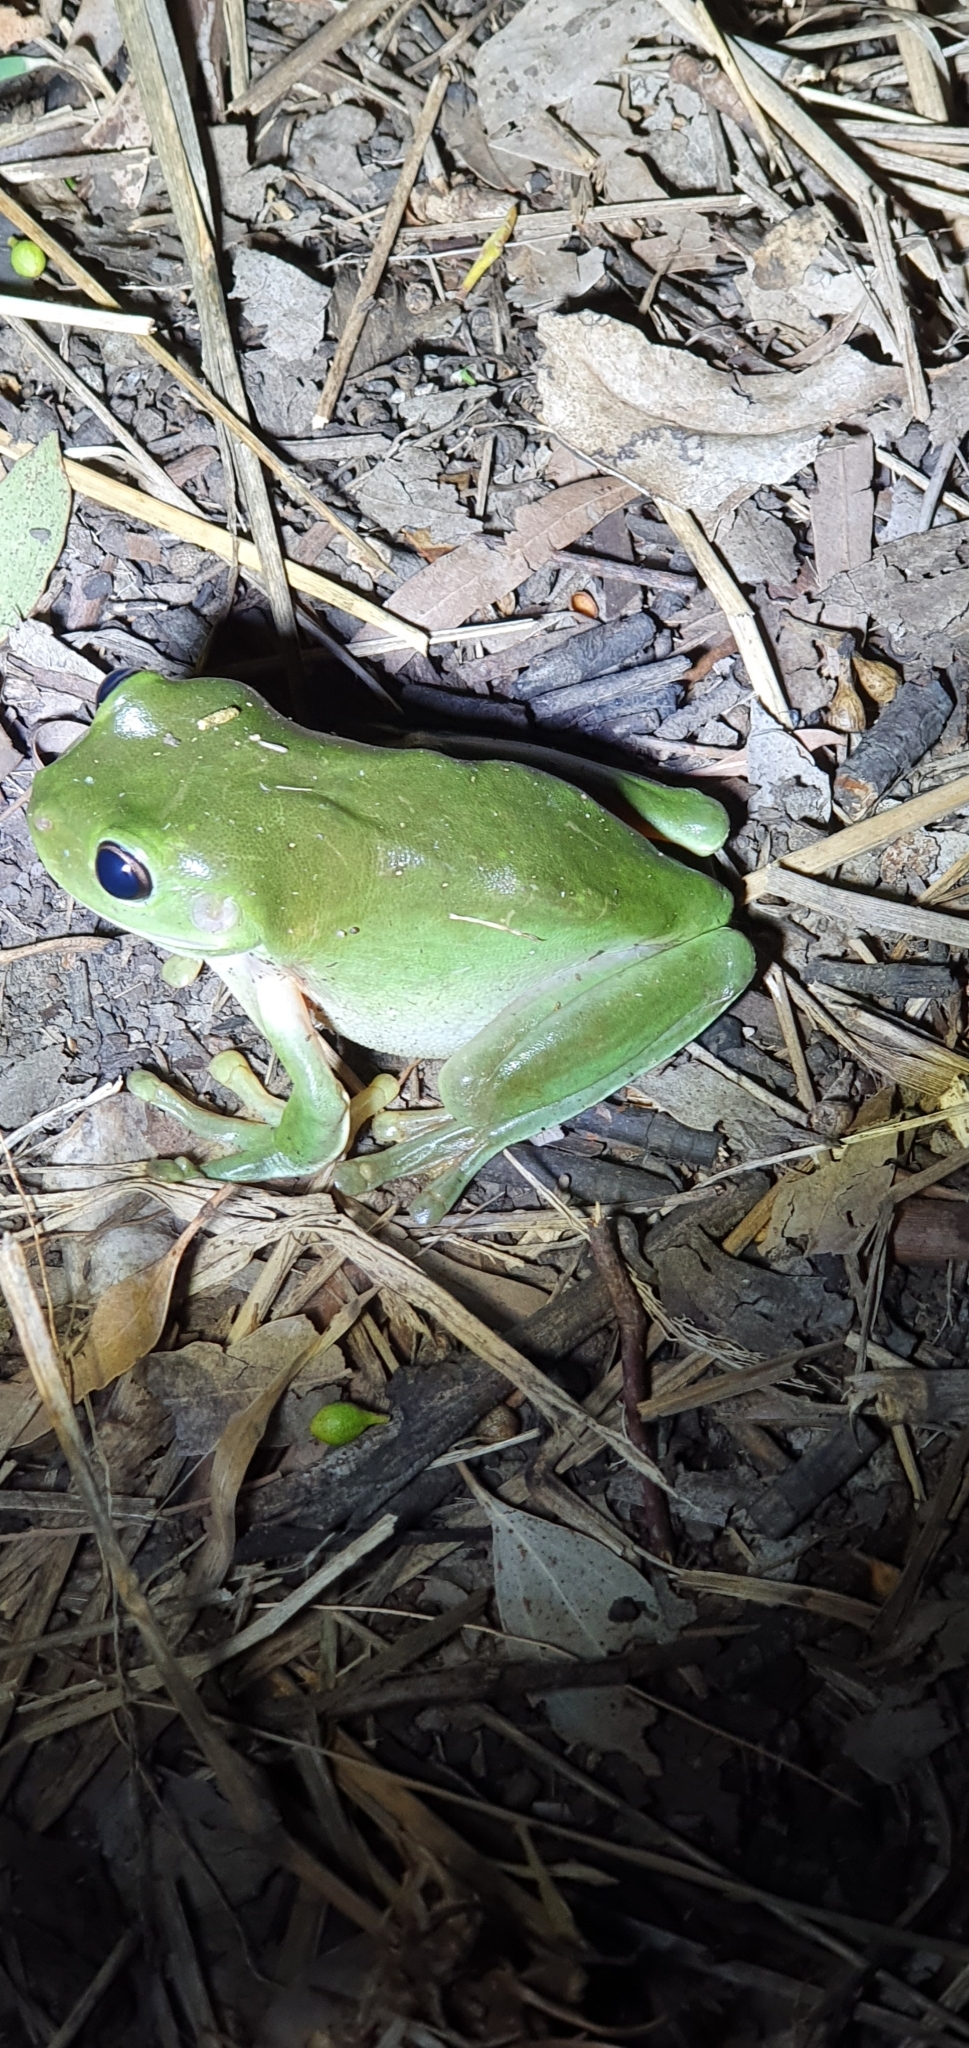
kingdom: Animalia
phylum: Chordata
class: Amphibia
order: Anura
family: Pelodryadidae
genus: Ranoidea
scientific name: Ranoidea caerulea
